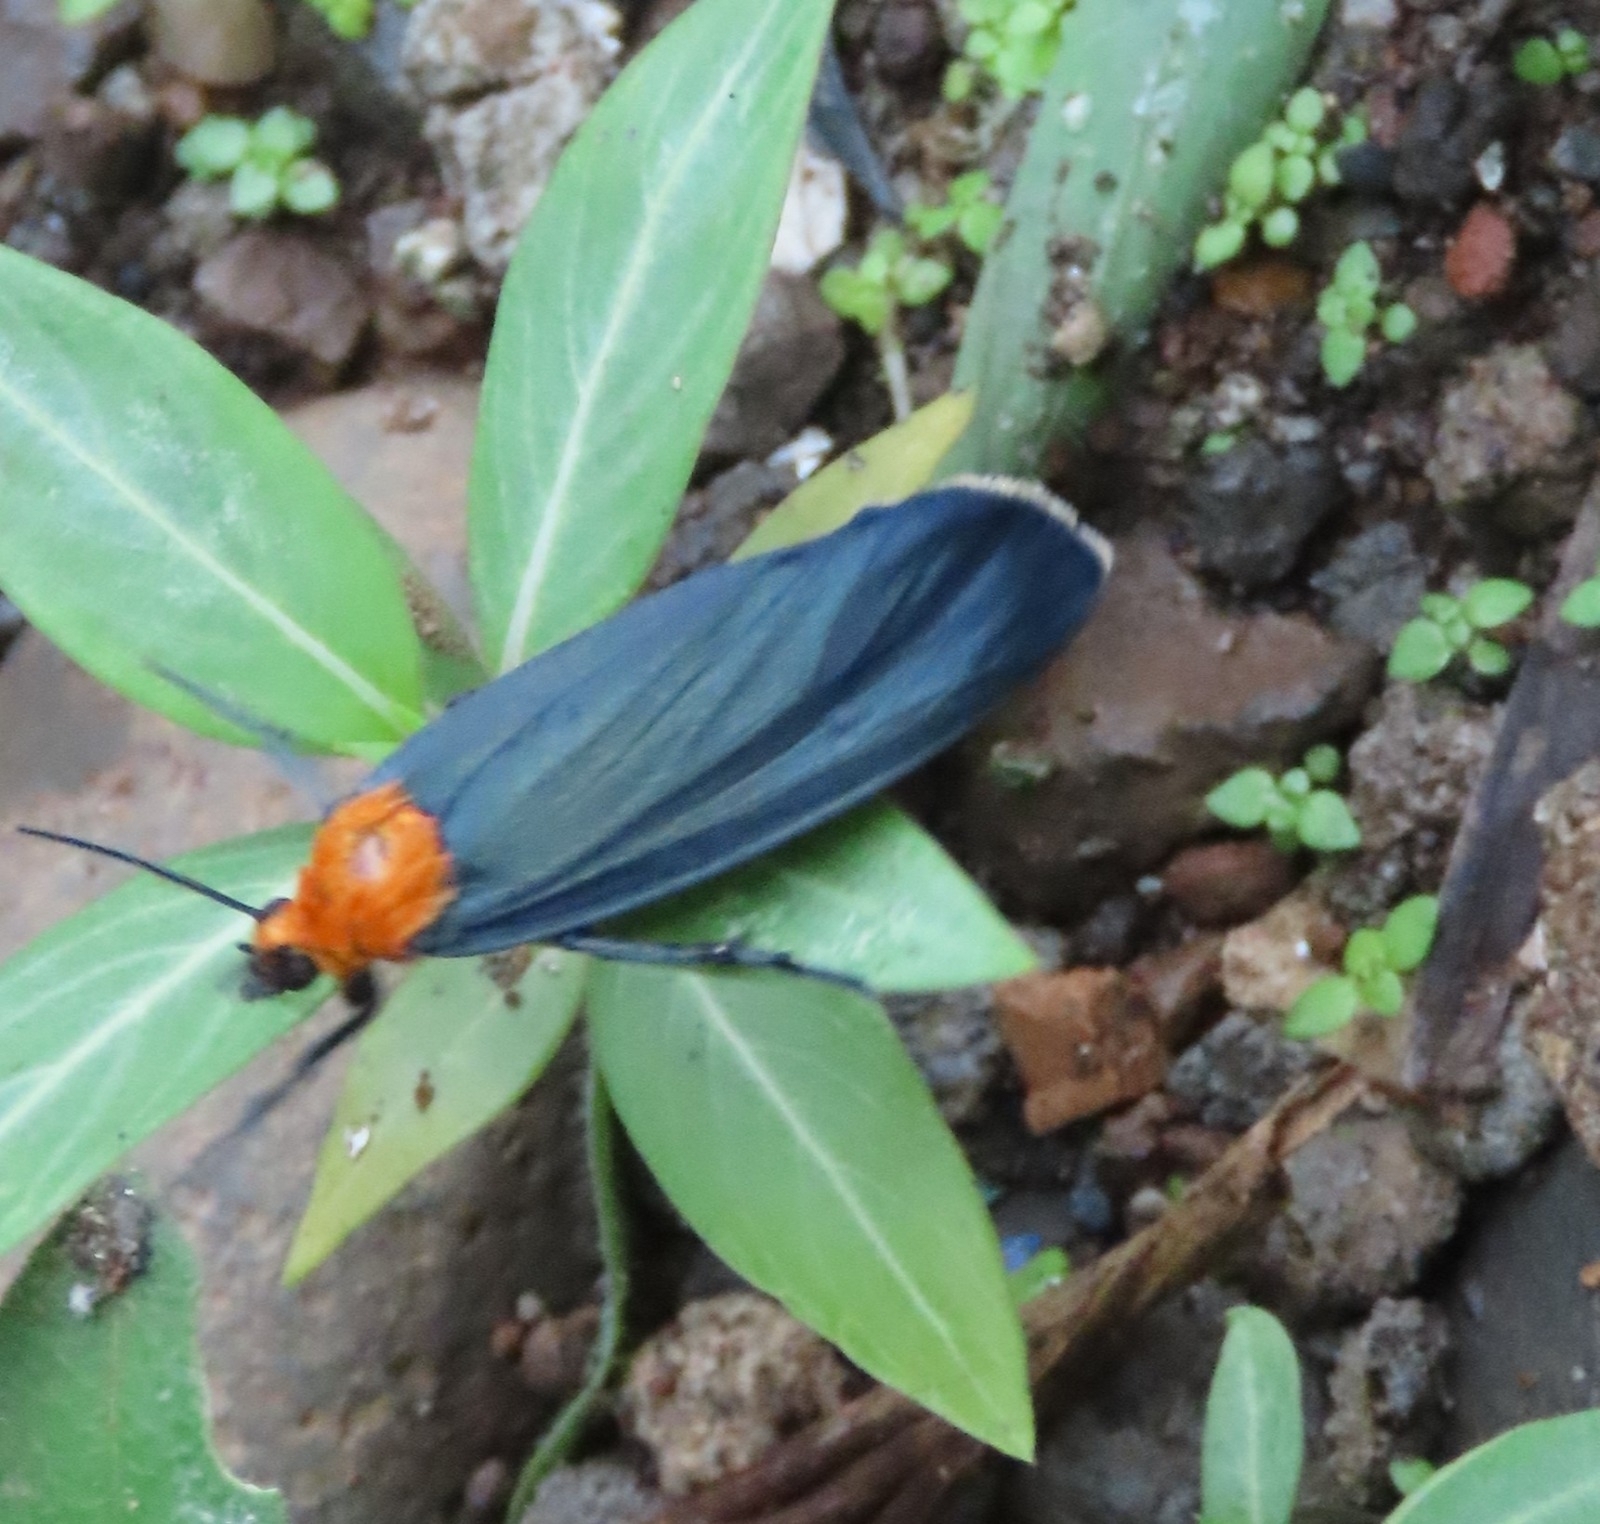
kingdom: Animalia
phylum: Arthropoda
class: Insecta
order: Lepidoptera
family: Erebidae
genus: Apistosia
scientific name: Apistosia judas
